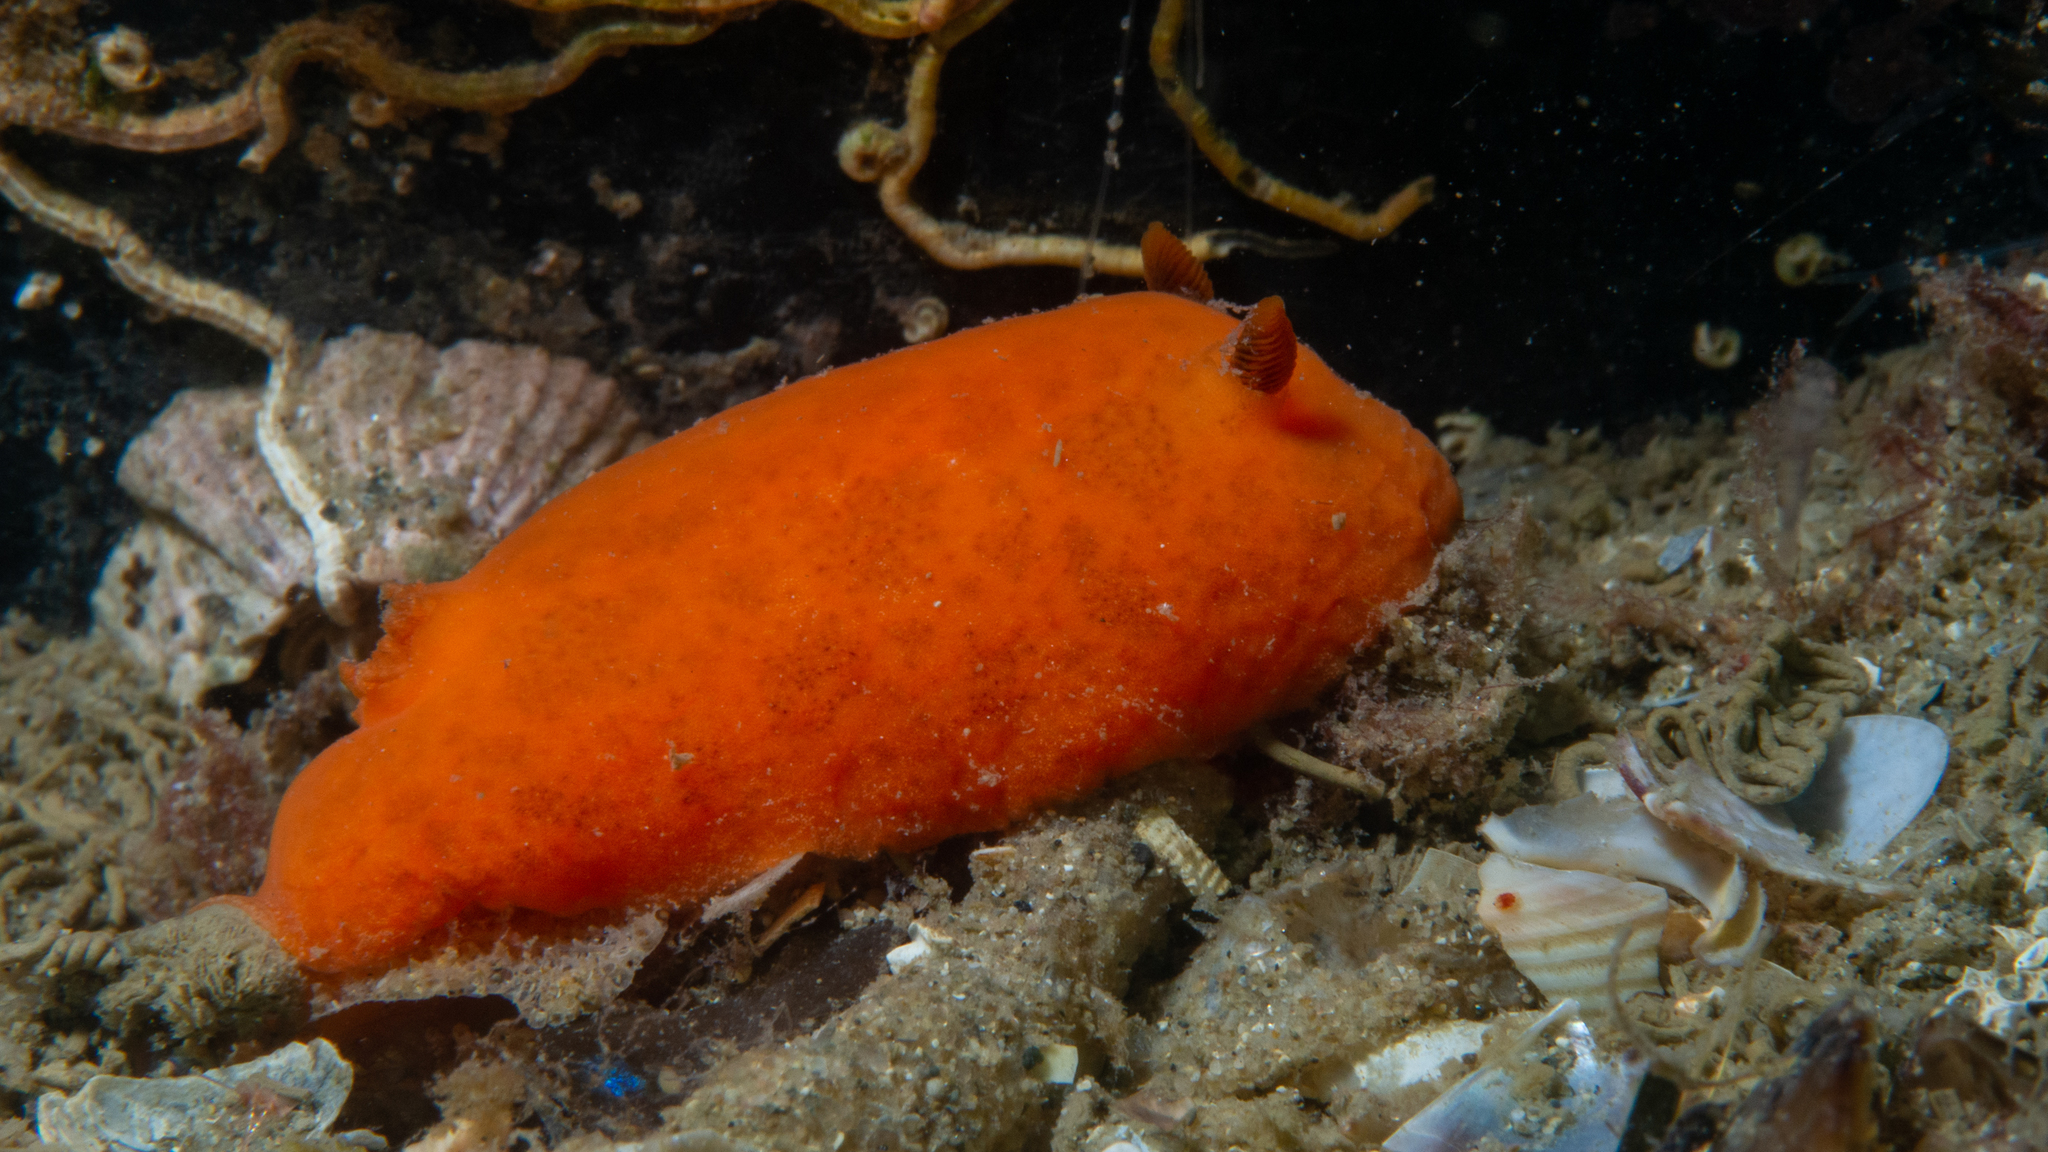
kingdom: Animalia
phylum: Mollusca
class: Gastropoda
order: Nudibranchia
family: Discodorididae
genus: Discodoris
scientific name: Discodoris paroa
